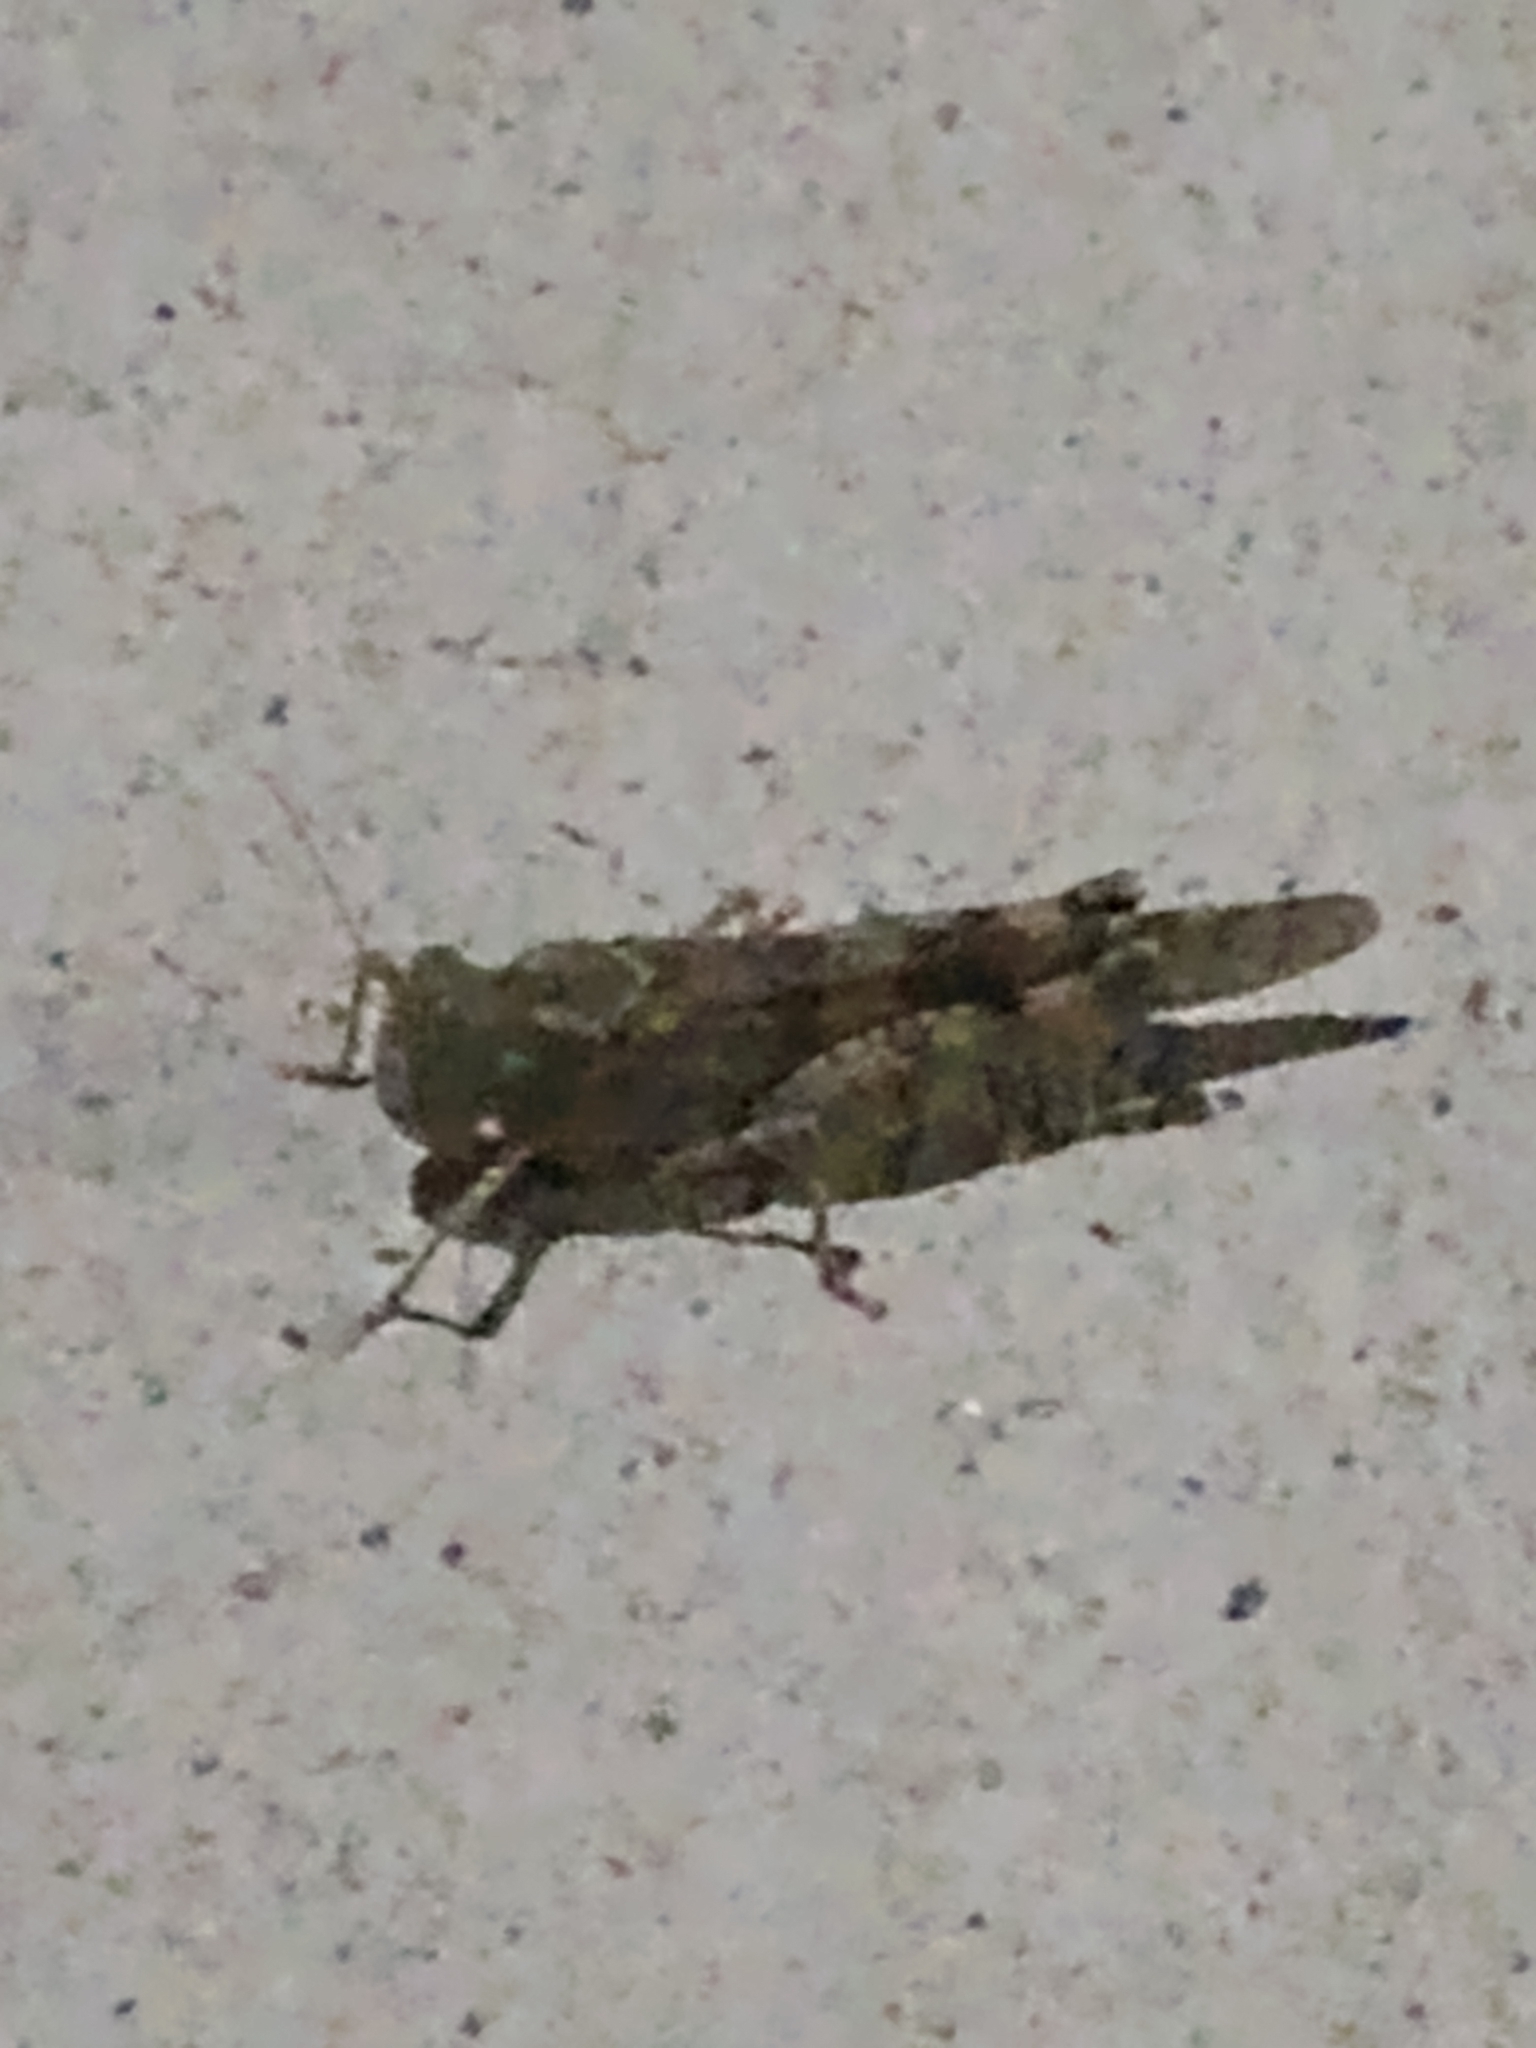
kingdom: Animalia
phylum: Arthropoda
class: Insecta
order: Orthoptera
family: Acrididae
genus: Trimerotropis
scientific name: Trimerotropis pallidipennis
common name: Pallid-winged grasshopper
